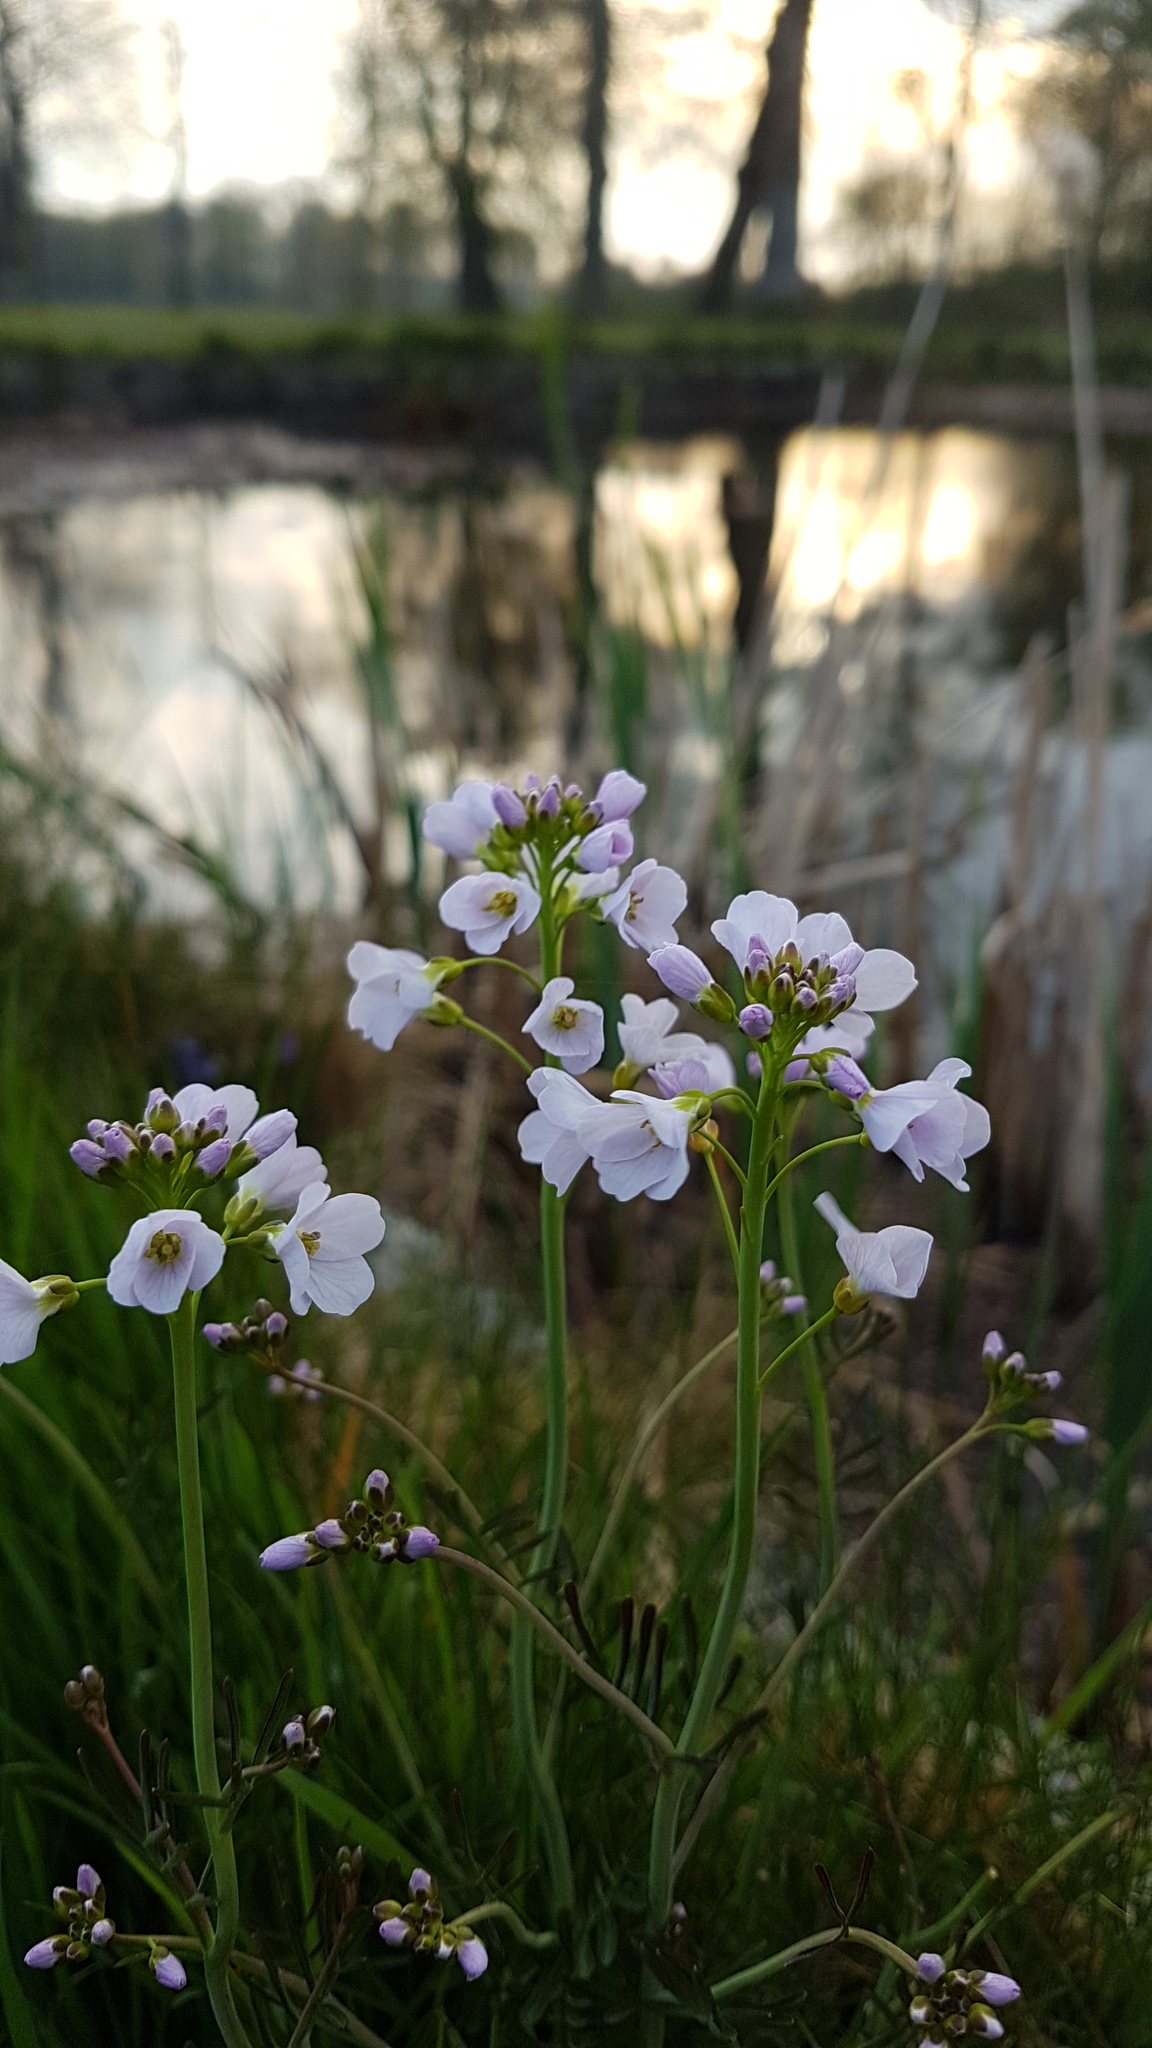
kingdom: Plantae
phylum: Tracheophyta
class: Magnoliopsida
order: Brassicales
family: Brassicaceae
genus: Cardamine
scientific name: Cardamine pratensis
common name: Cuckoo flower
